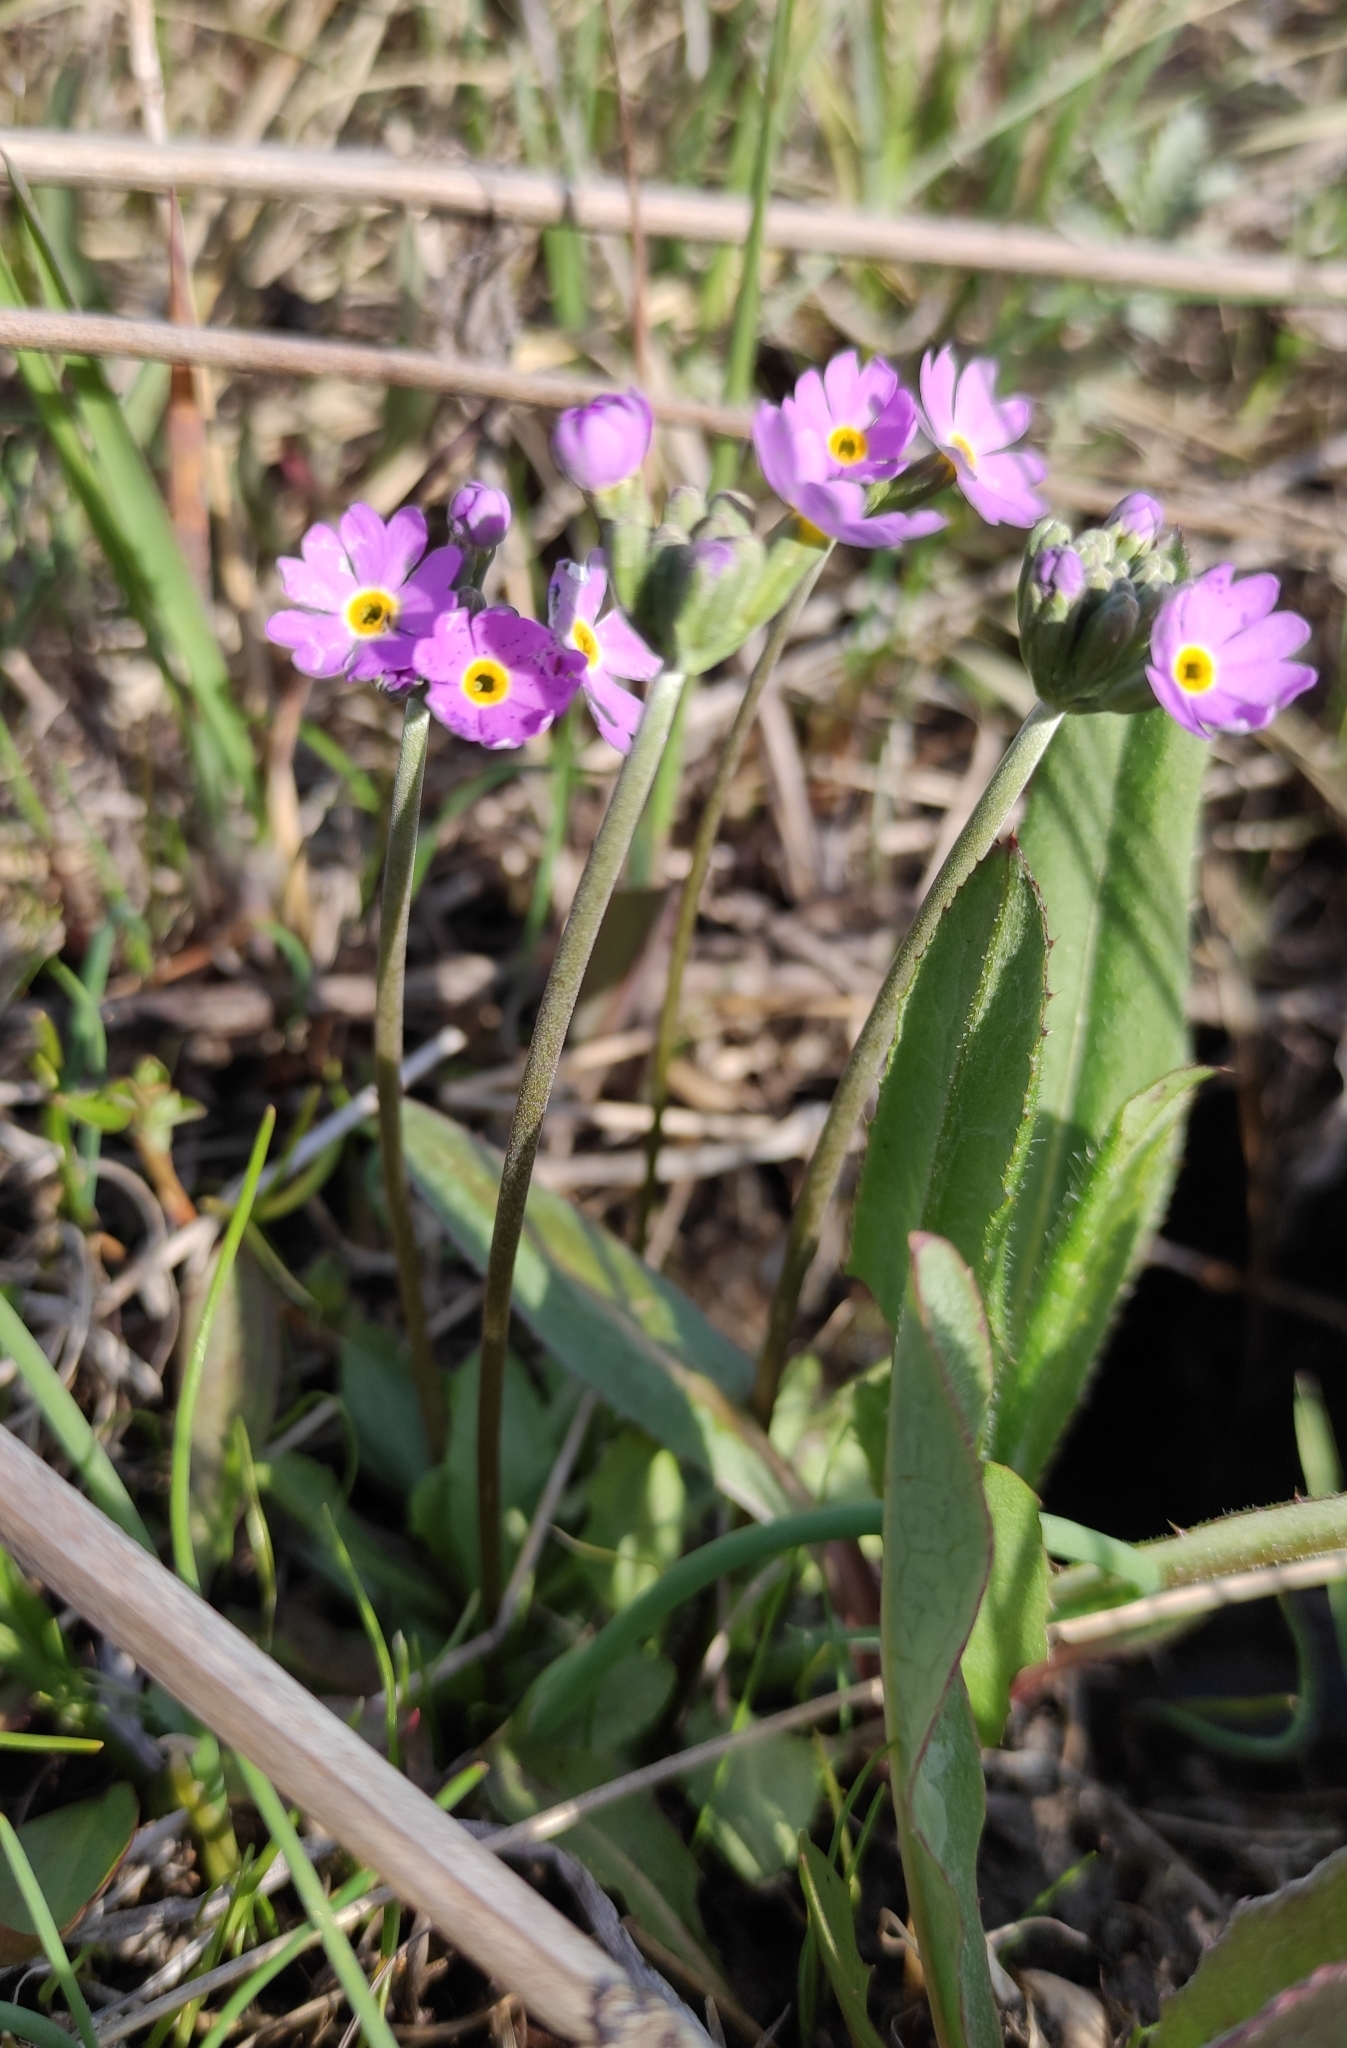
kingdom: Plantae
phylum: Tracheophyta
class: Magnoliopsida
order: Ericales
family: Primulaceae
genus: Primula
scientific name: Primula farinosa
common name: Bird's-eye primrose
